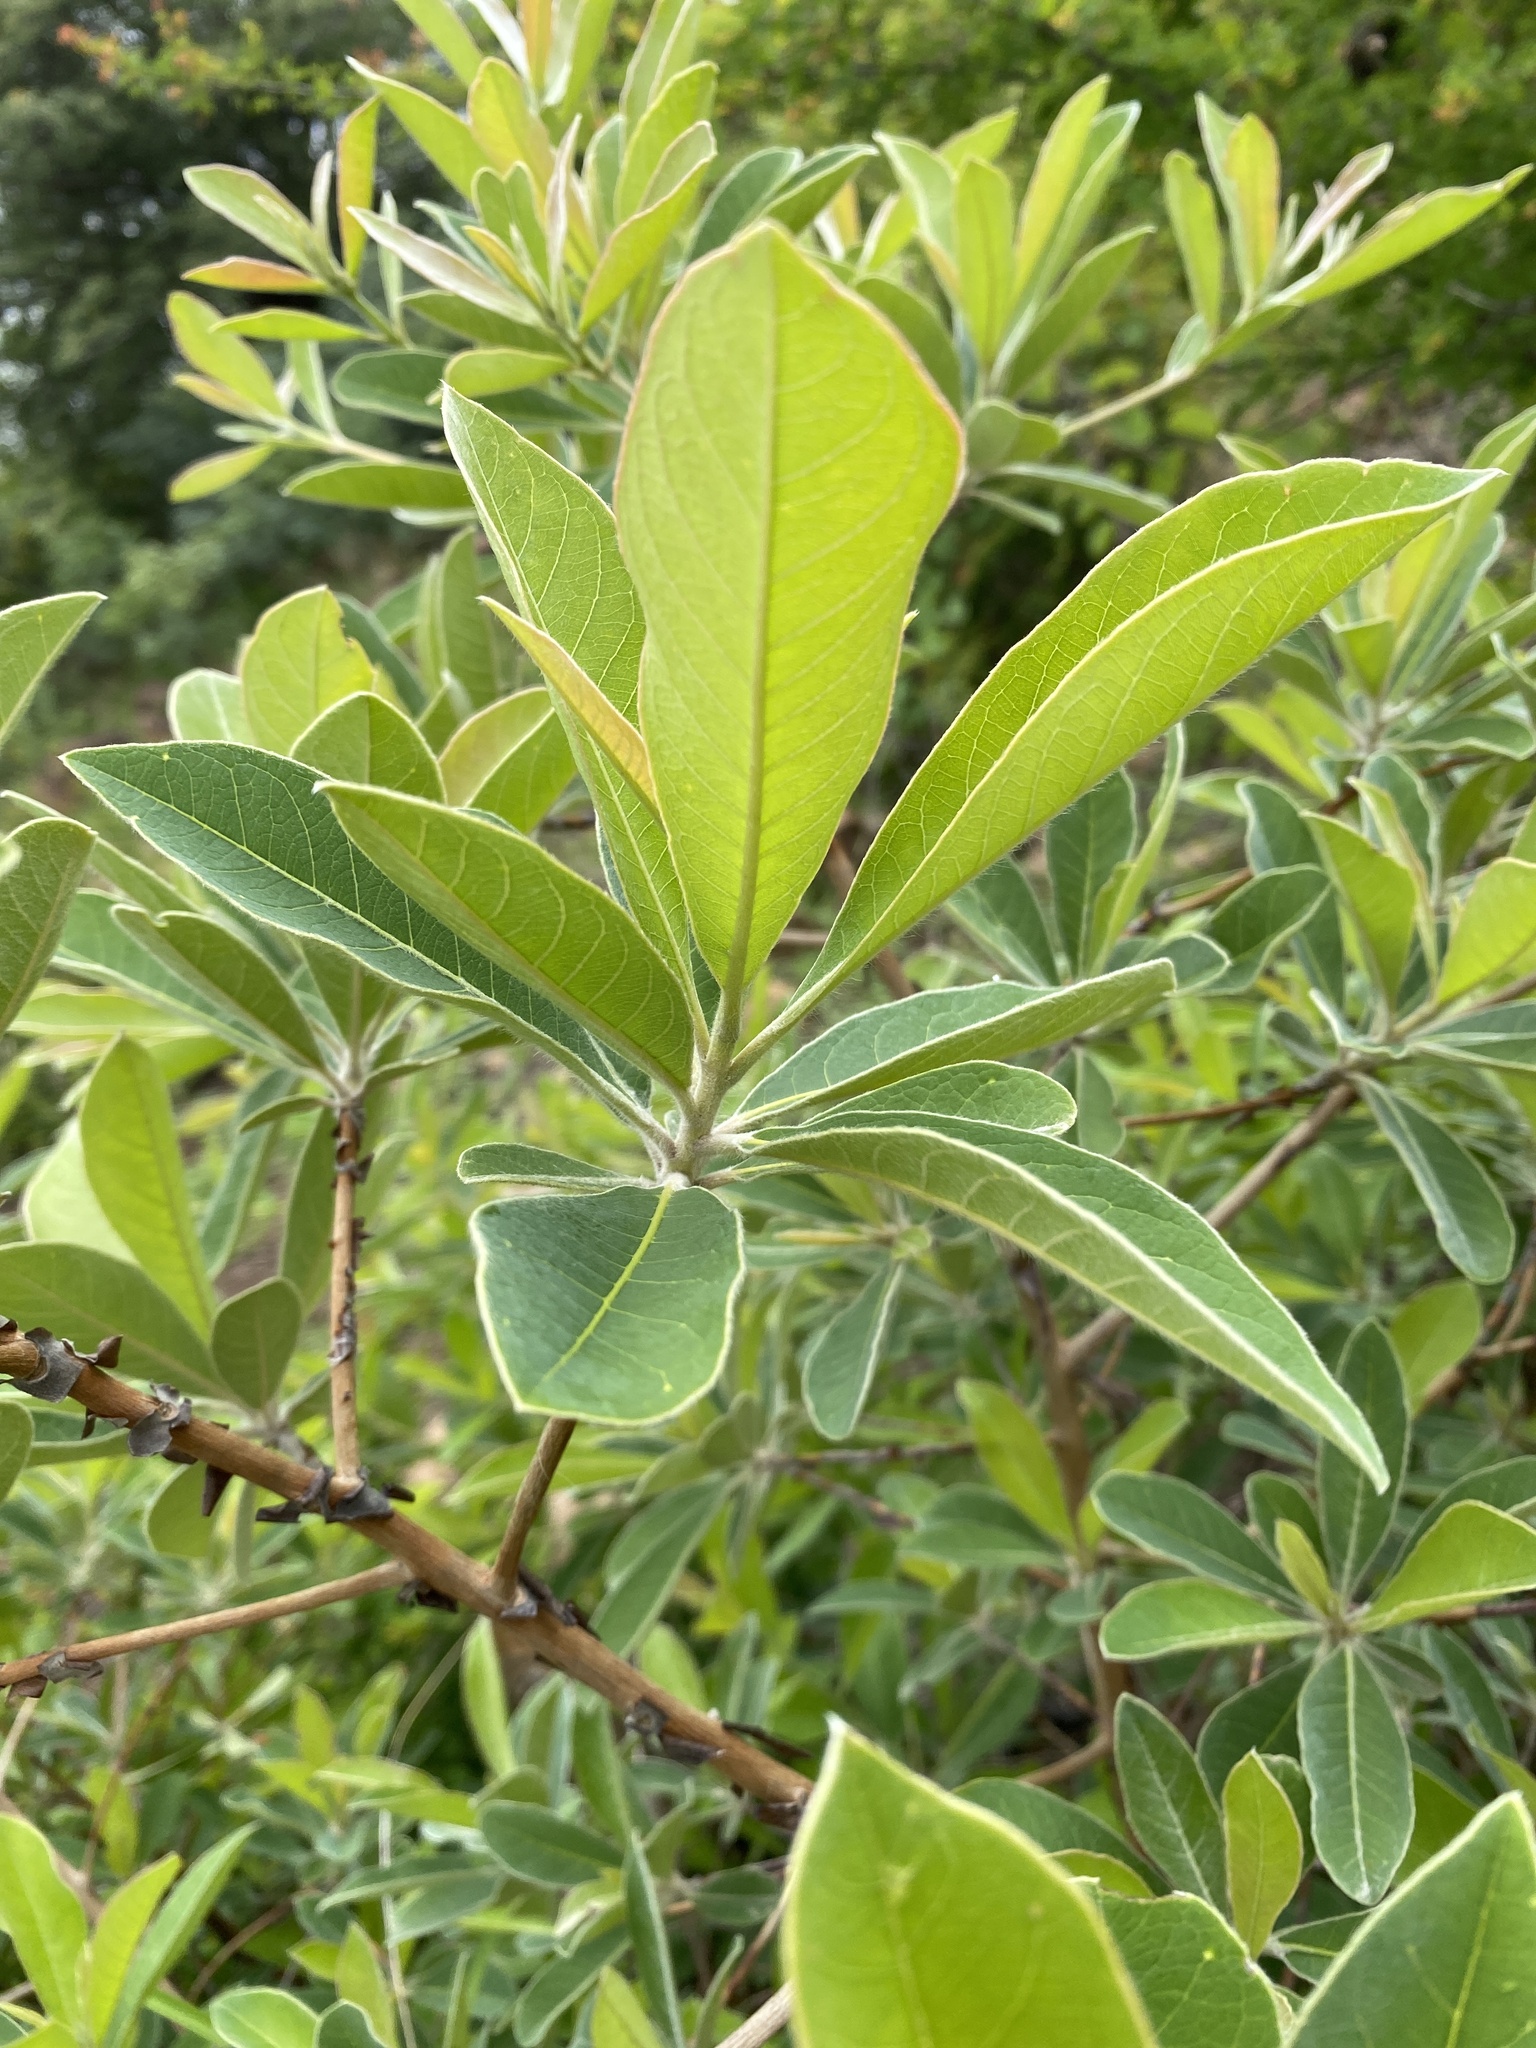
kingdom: Plantae
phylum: Tracheophyta
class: Magnoliopsida
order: Myrtales
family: Combretaceae
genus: Terminalia
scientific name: Terminalia sericea
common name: Clusterleaf
